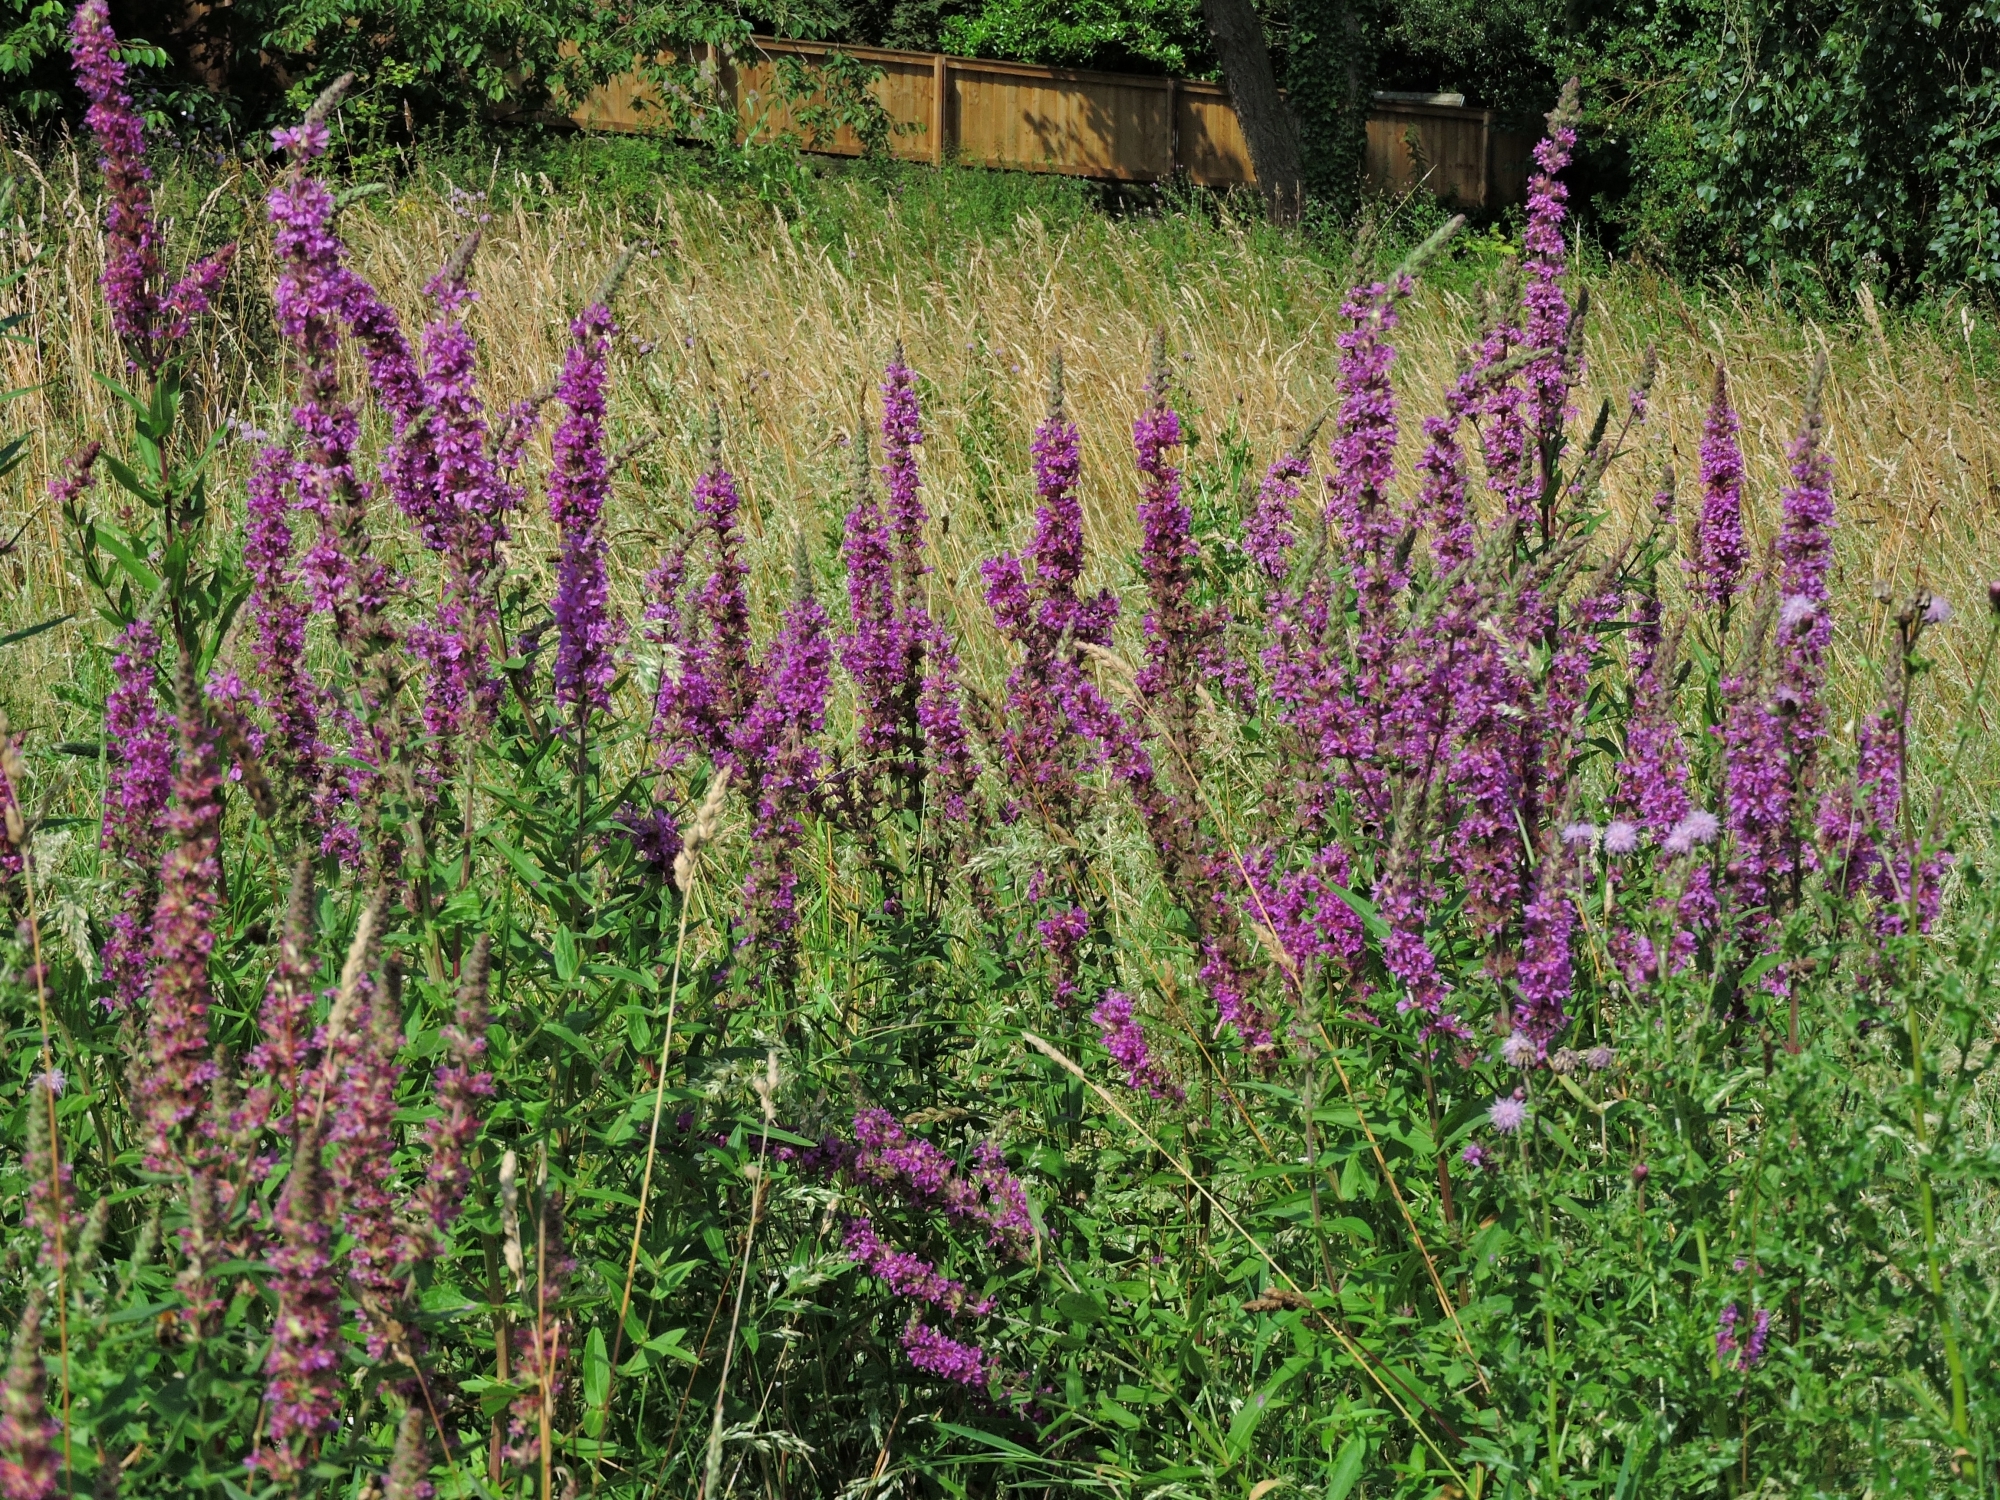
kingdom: Plantae
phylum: Tracheophyta
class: Magnoliopsida
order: Myrtales
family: Lythraceae
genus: Lythrum
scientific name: Lythrum salicaria
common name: Purple loosestrife
